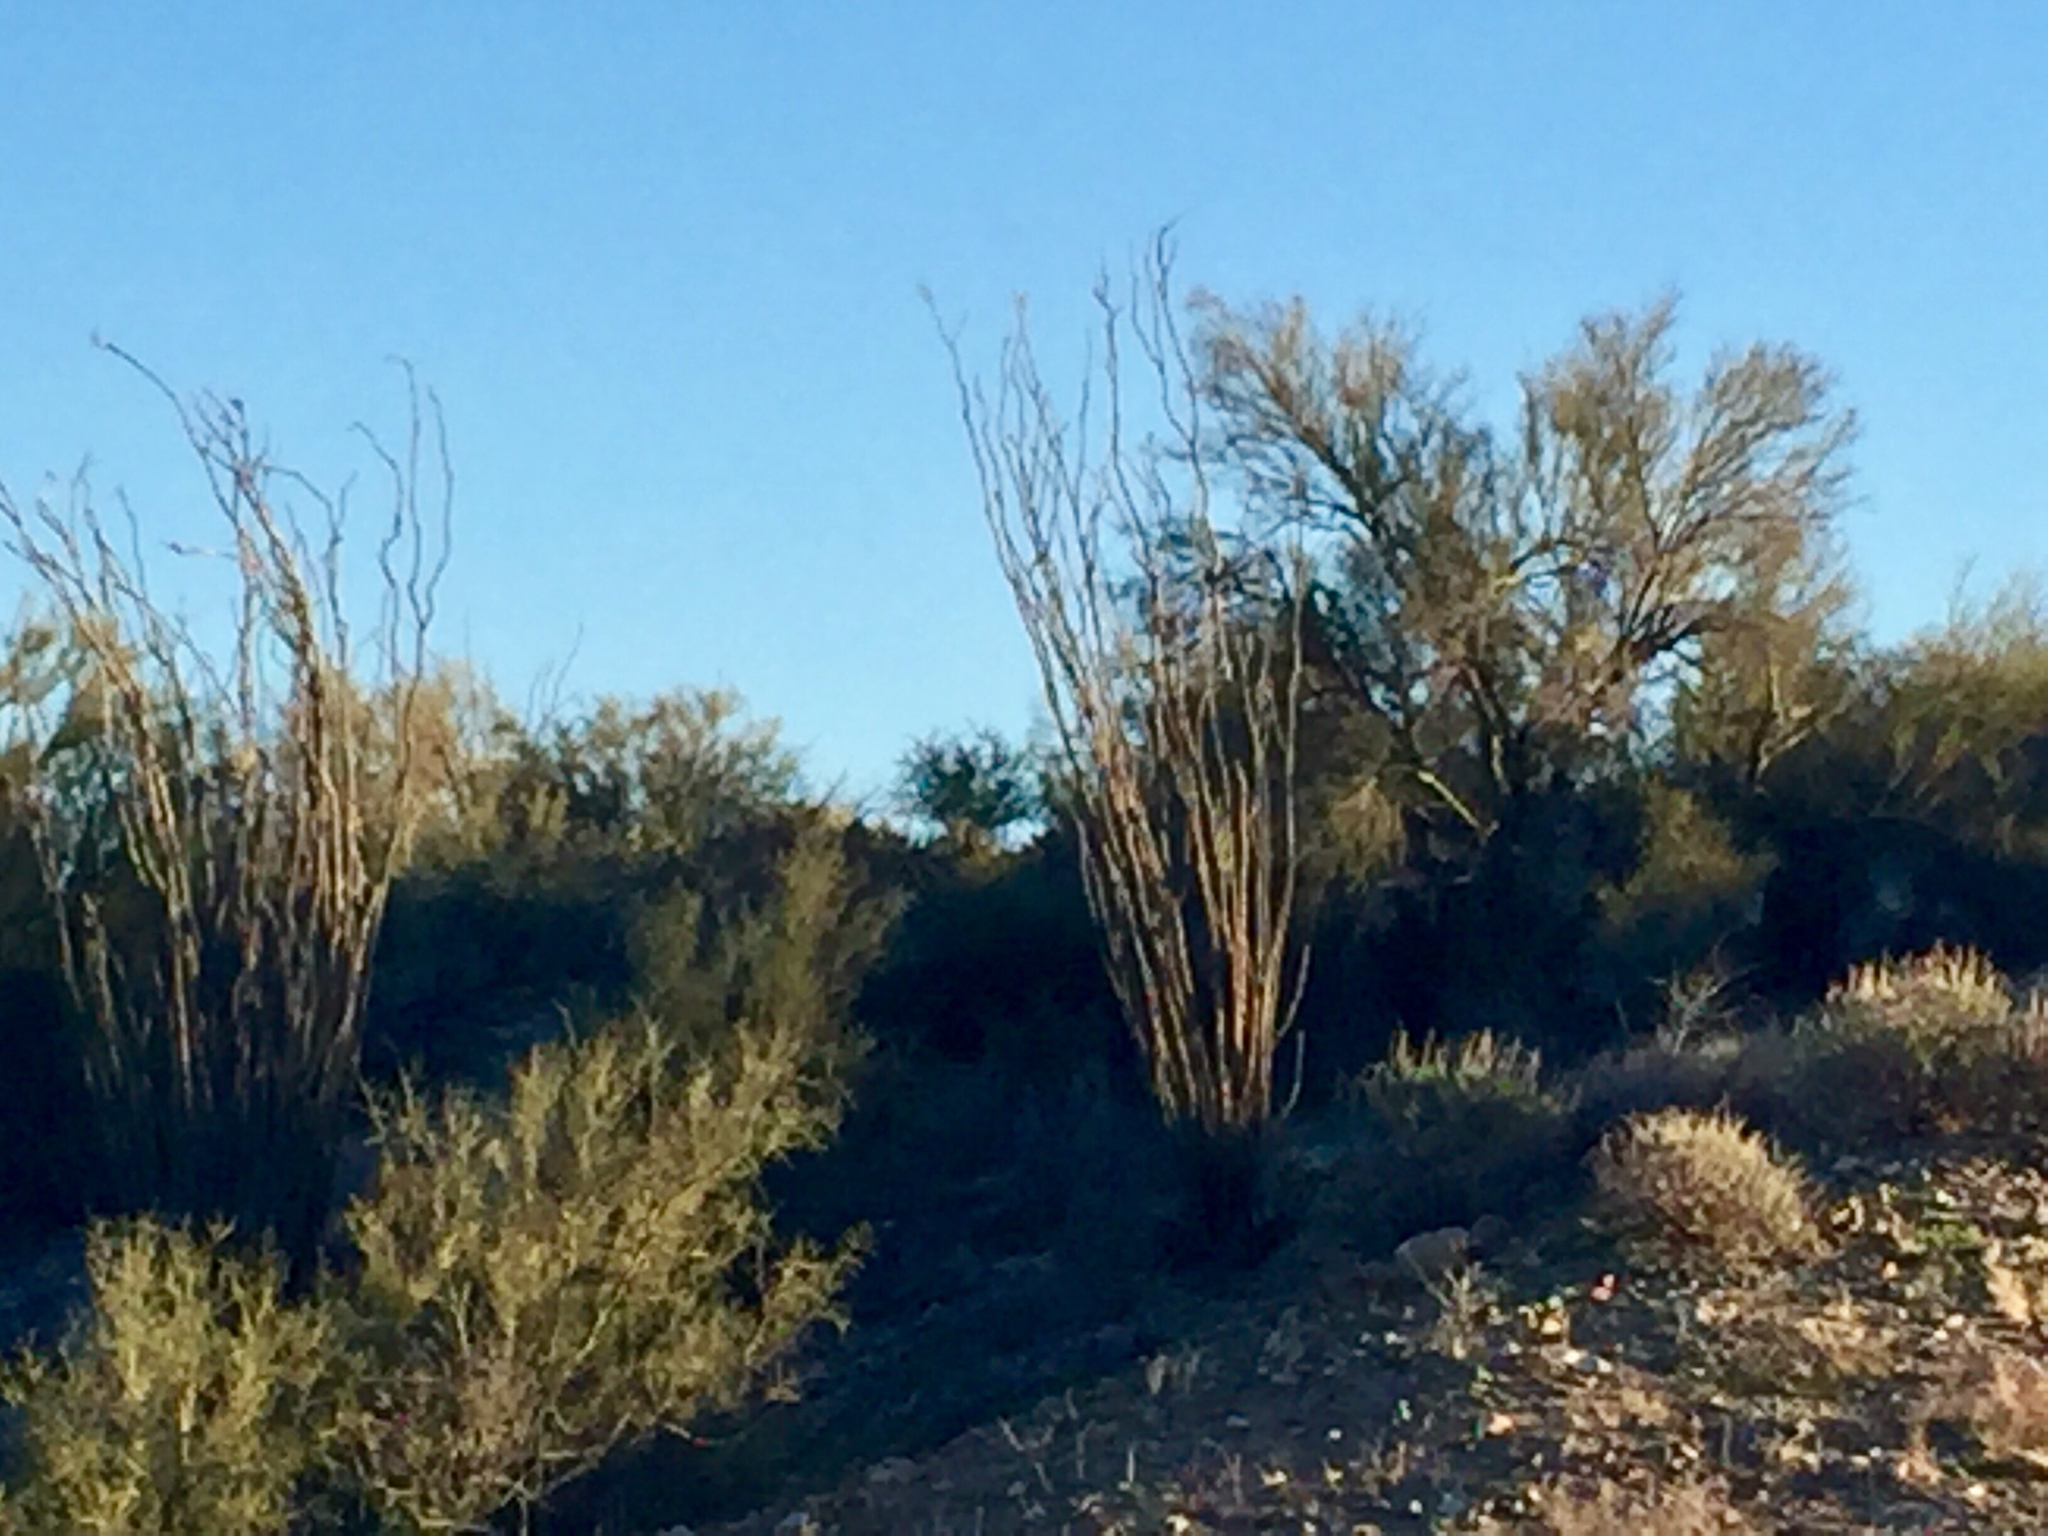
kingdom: Plantae
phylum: Tracheophyta
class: Magnoliopsida
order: Ericales
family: Fouquieriaceae
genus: Fouquieria
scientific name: Fouquieria splendens
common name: Vine-cactus
